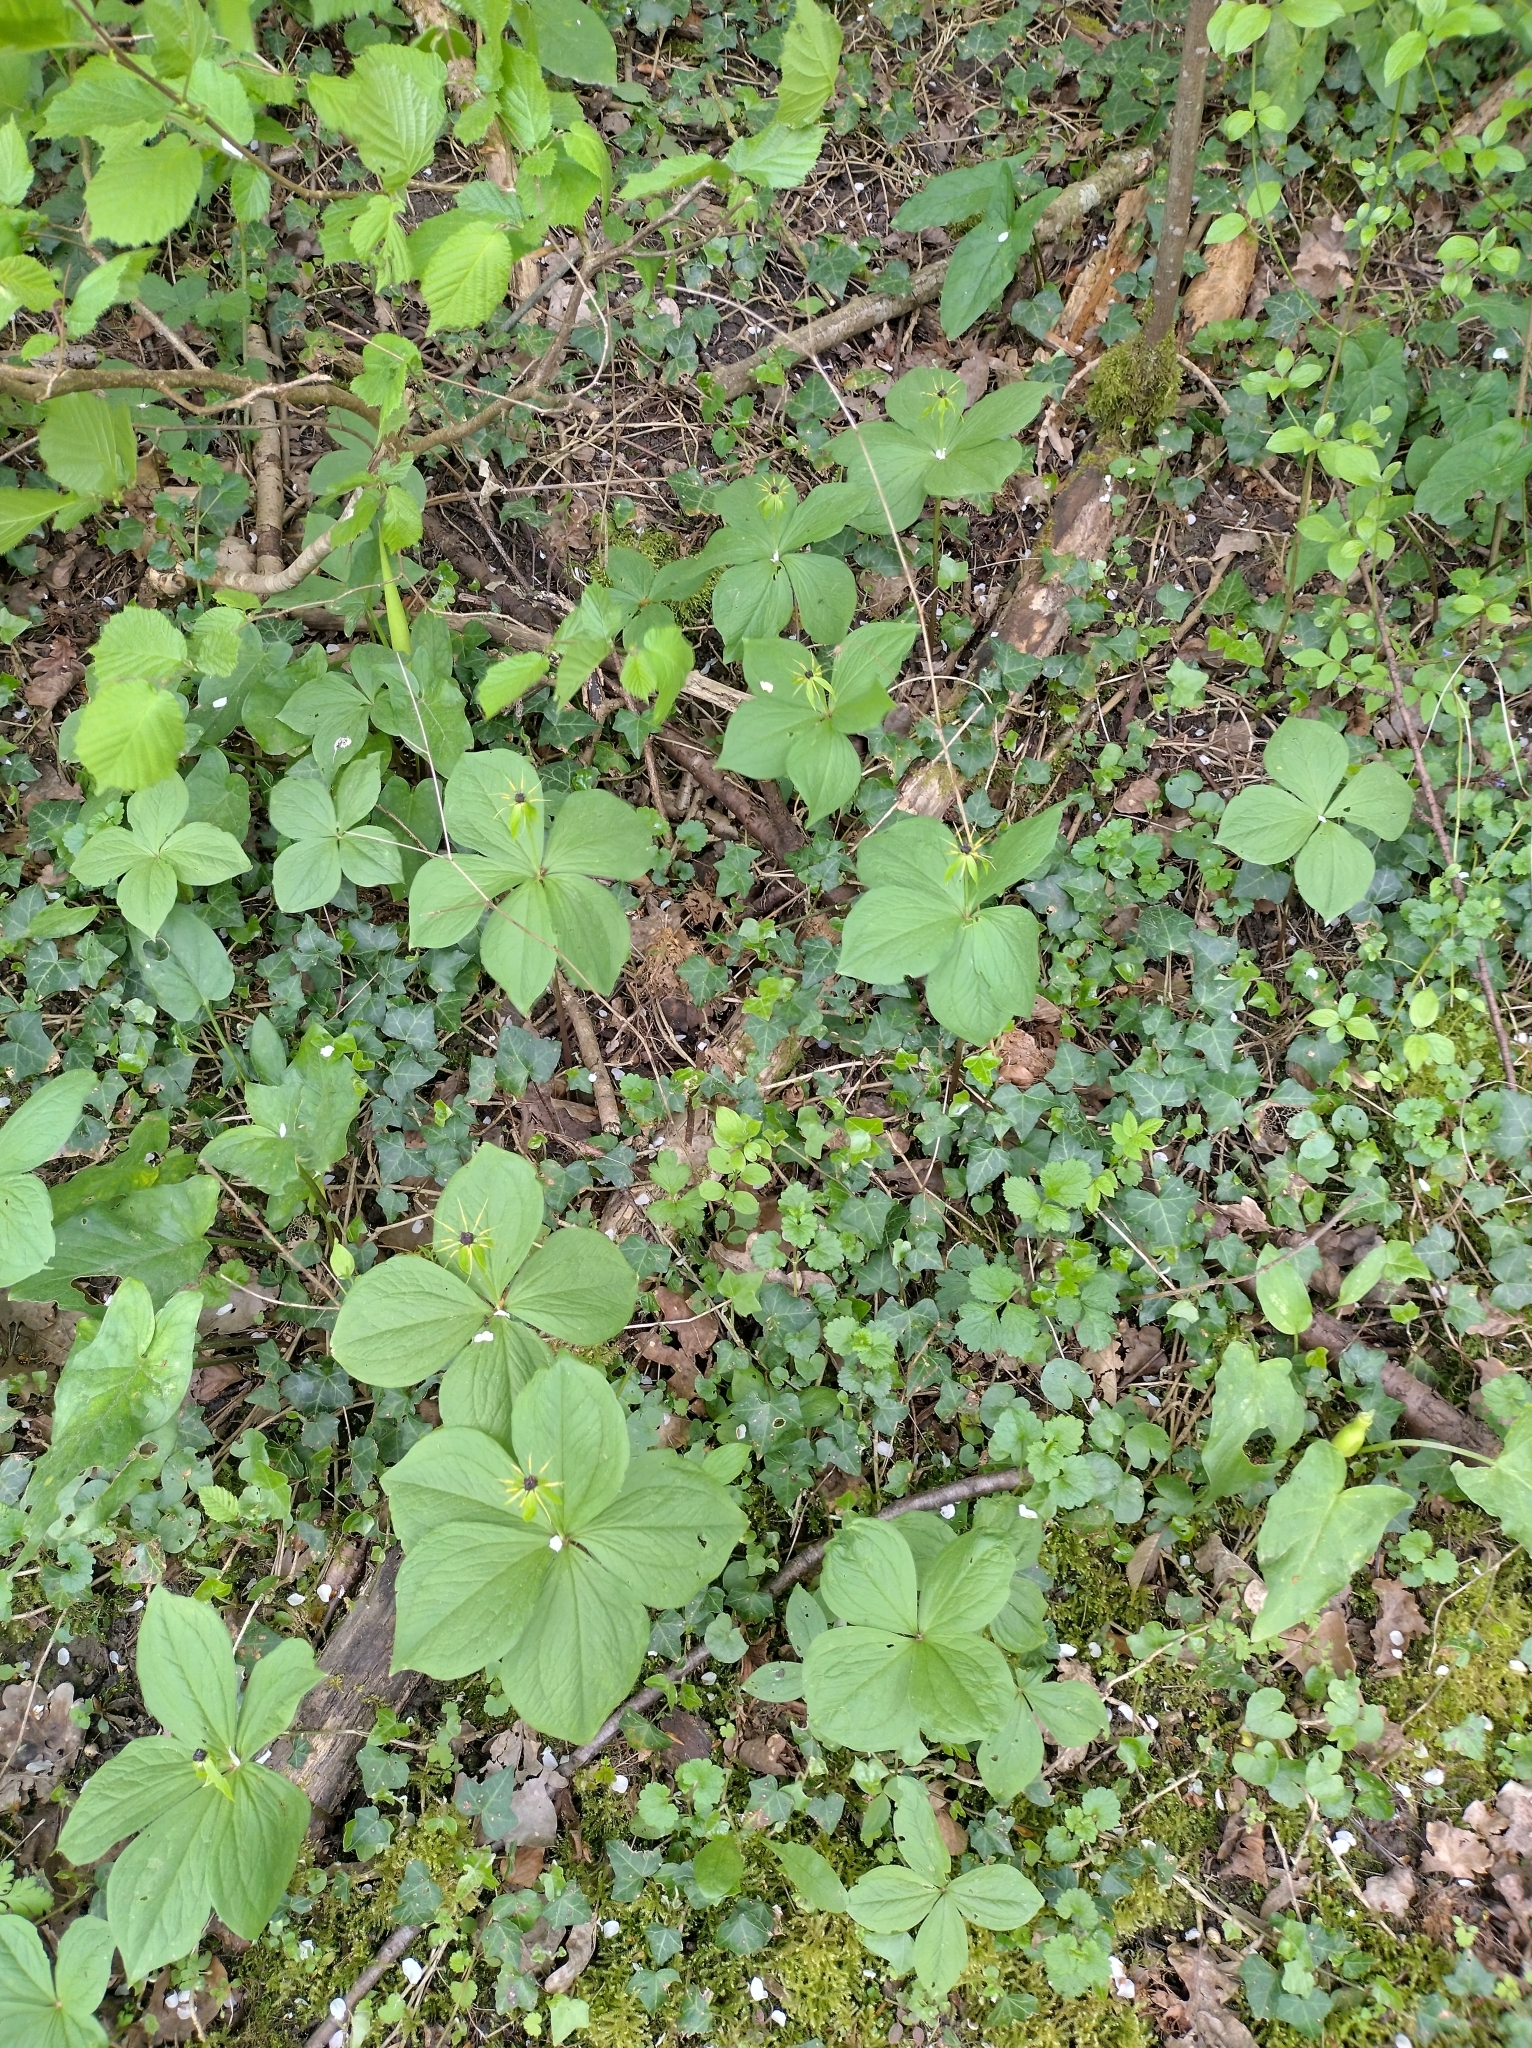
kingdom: Plantae
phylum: Tracheophyta
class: Liliopsida
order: Liliales
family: Melanthiaceae
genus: Paris
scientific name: Paris quadrifolia
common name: Herb-paris
